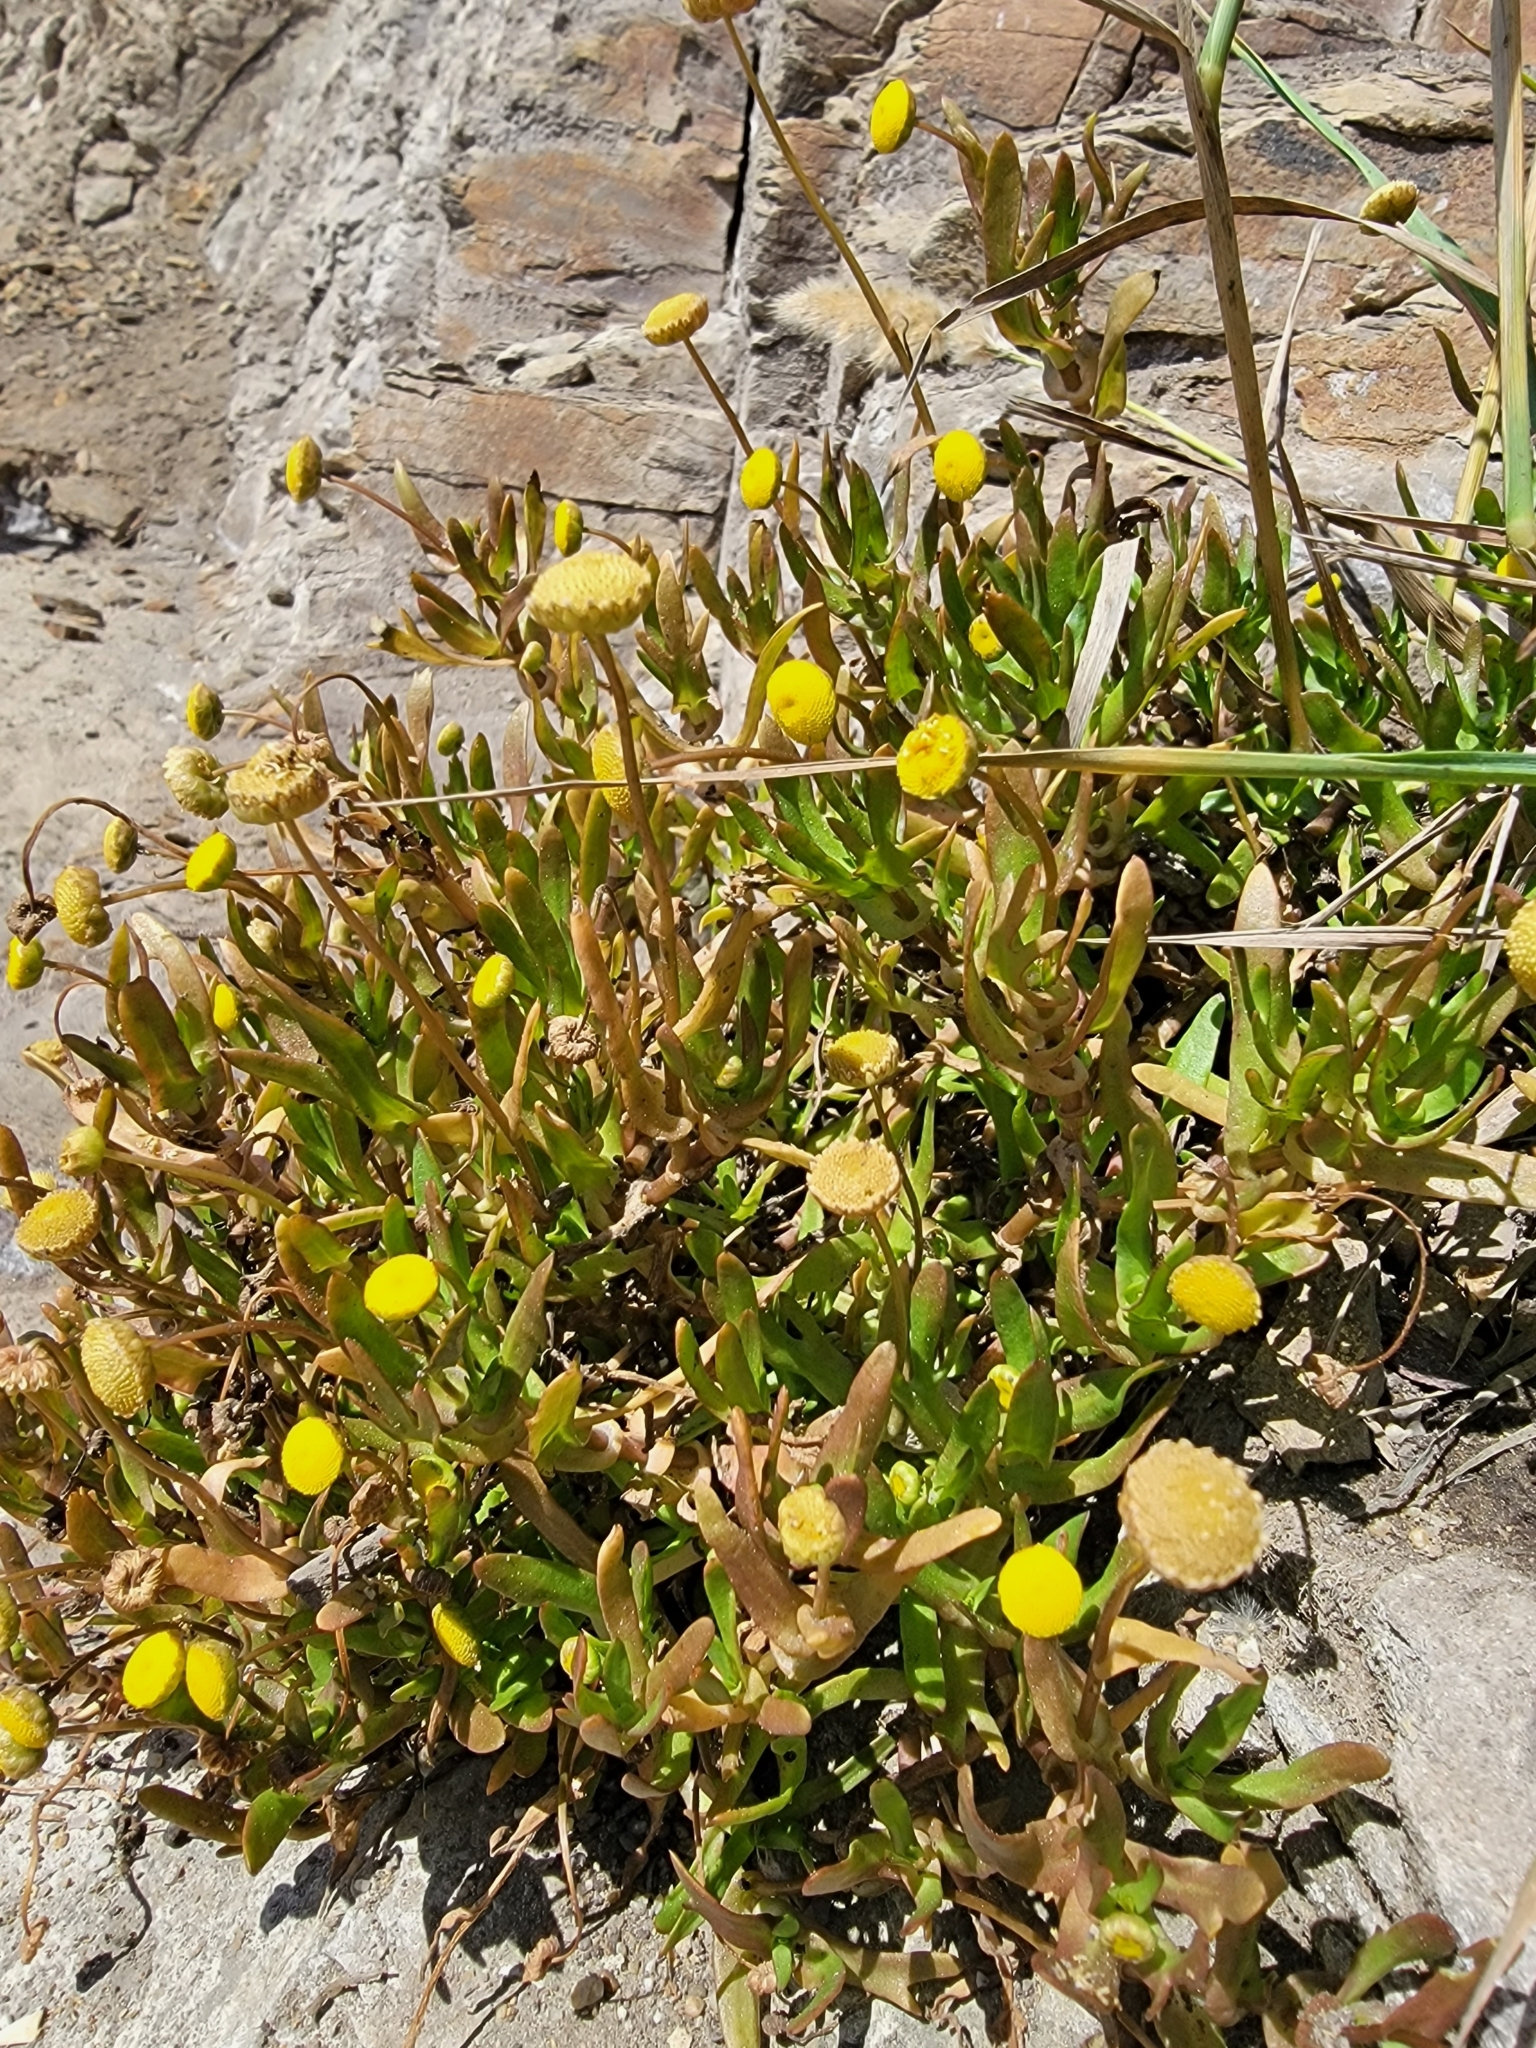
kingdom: Plantae
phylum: Tracheophyta
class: Magnoliopsida
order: Asterales
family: Asteraceae
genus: Cotula
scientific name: Cotula coronopifolia
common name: Buttonweed
